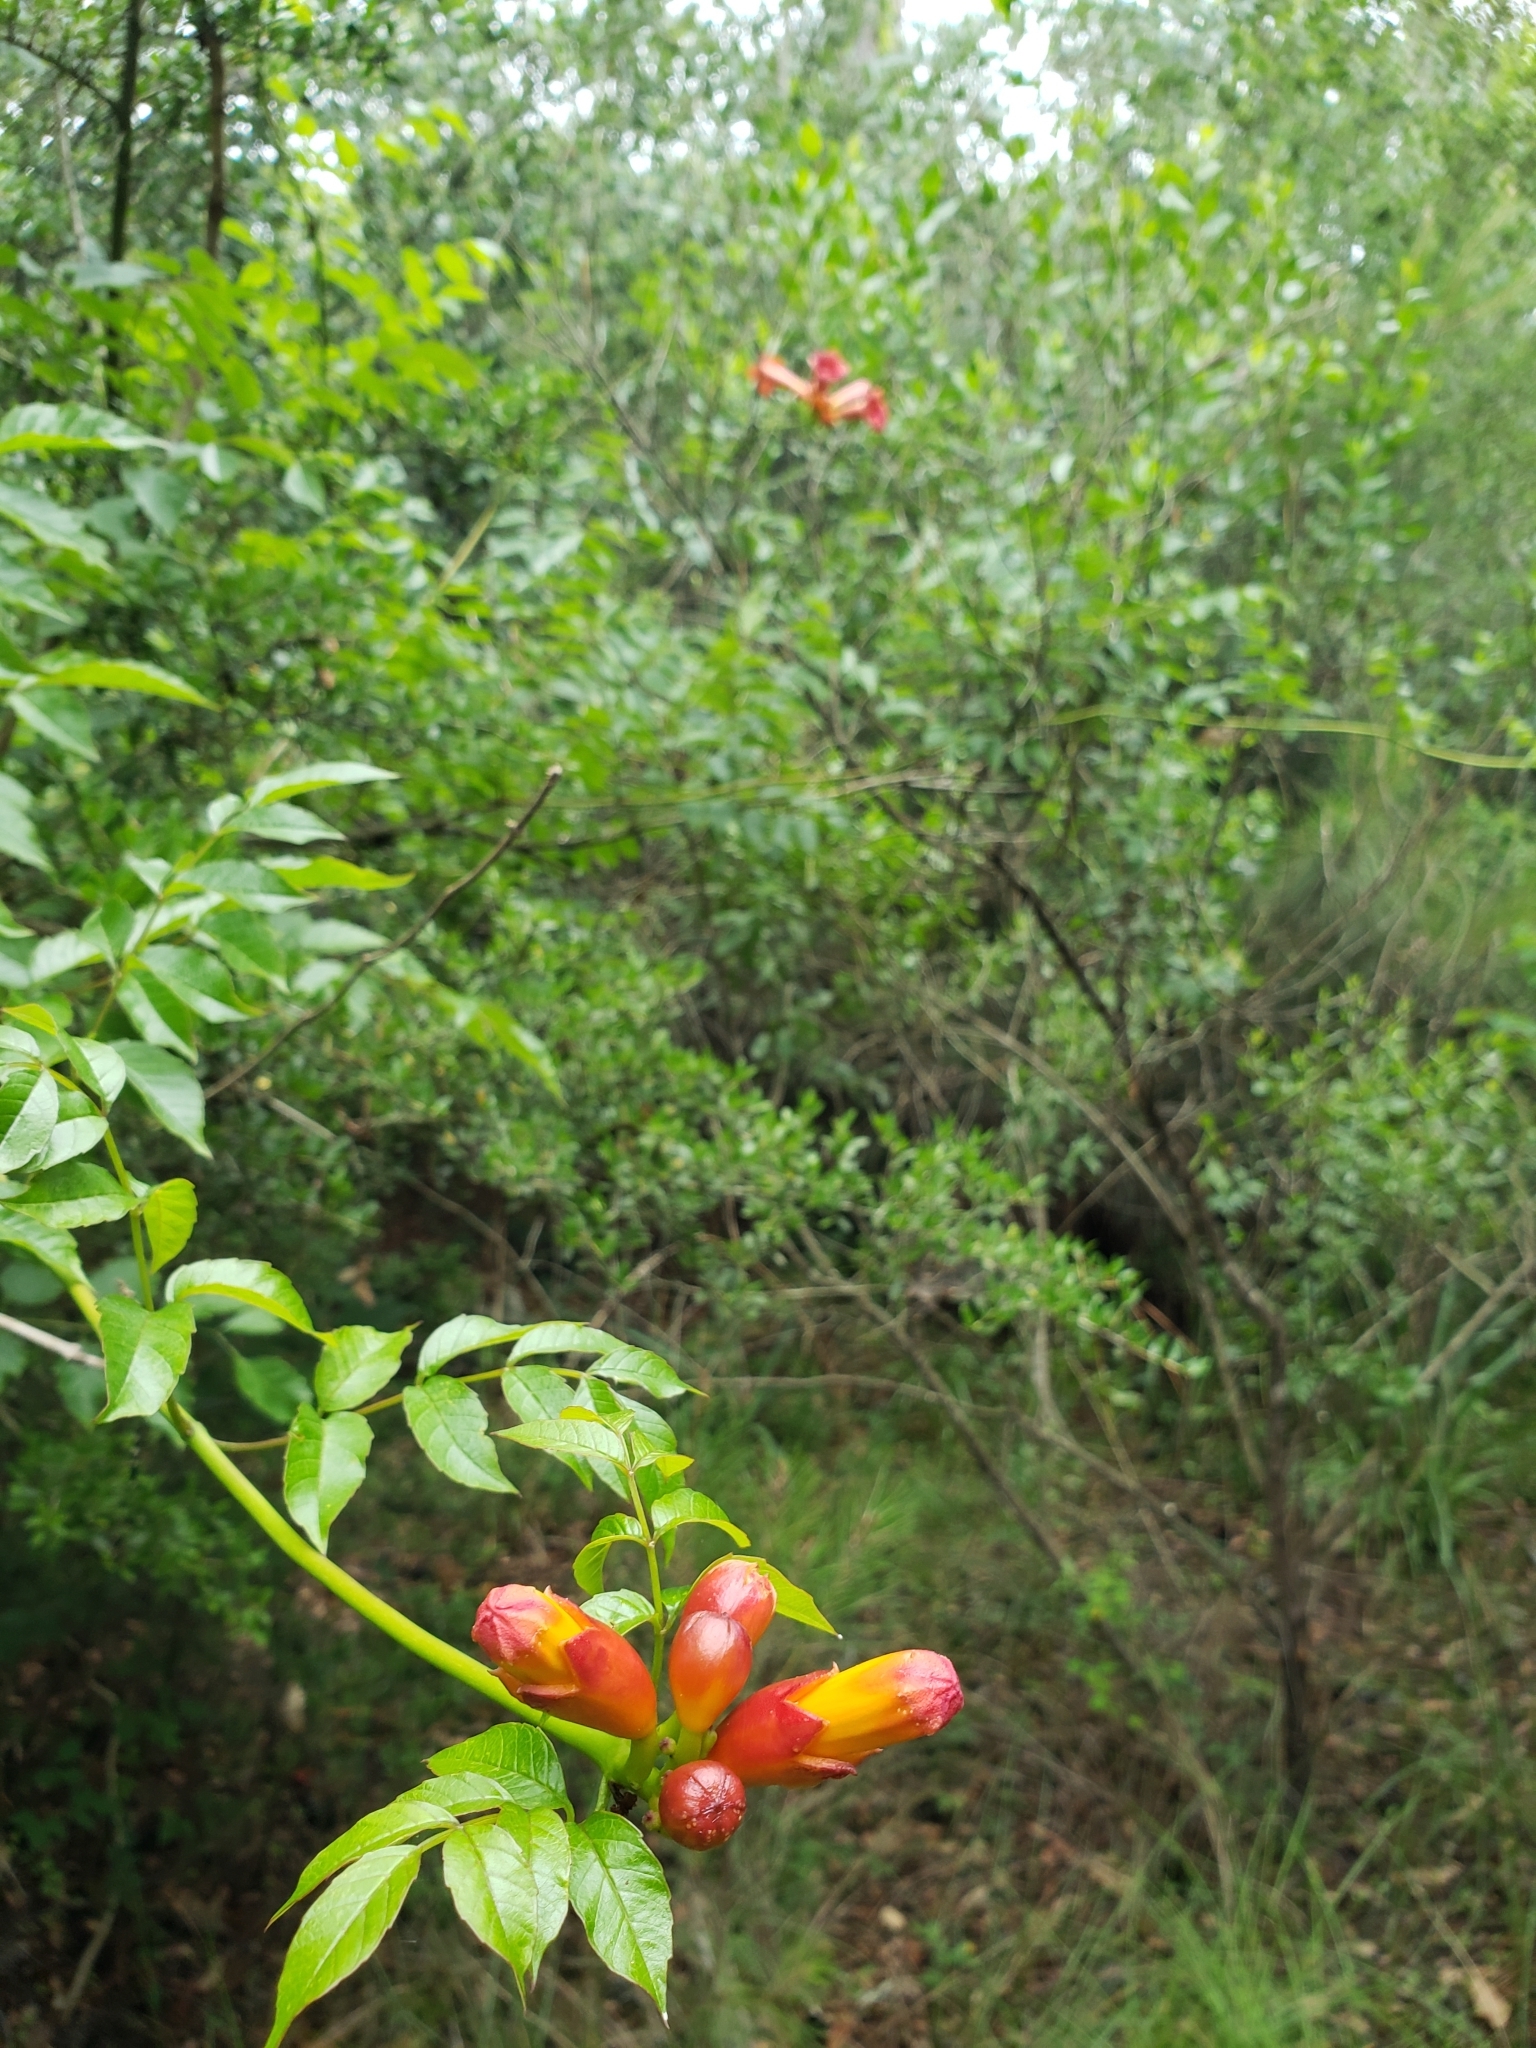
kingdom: Plantae
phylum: Tracheophyta
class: Magnoliopsida
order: Lamiales
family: Bignoniaceae
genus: Campsis
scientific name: Campsis radicans
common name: Trumpet-creeper
